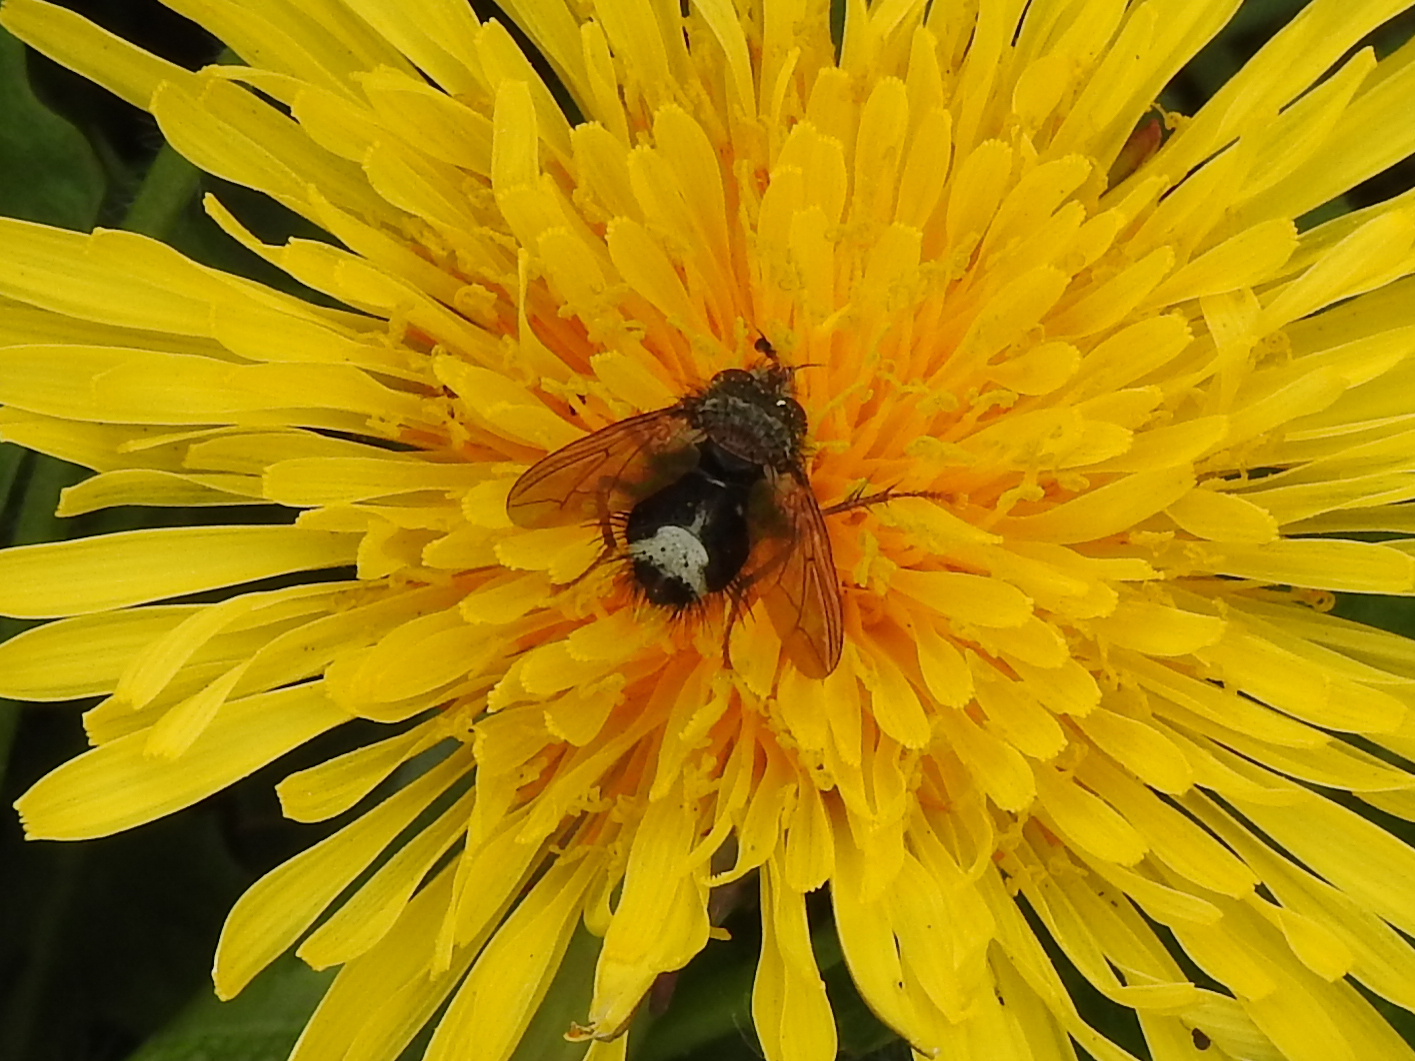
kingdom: Animalia
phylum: Arthropoda
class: Insecta
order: Diptera
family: Tachinidae
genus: Epalpus
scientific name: Epalpus signifer
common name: Early tachinid fly
